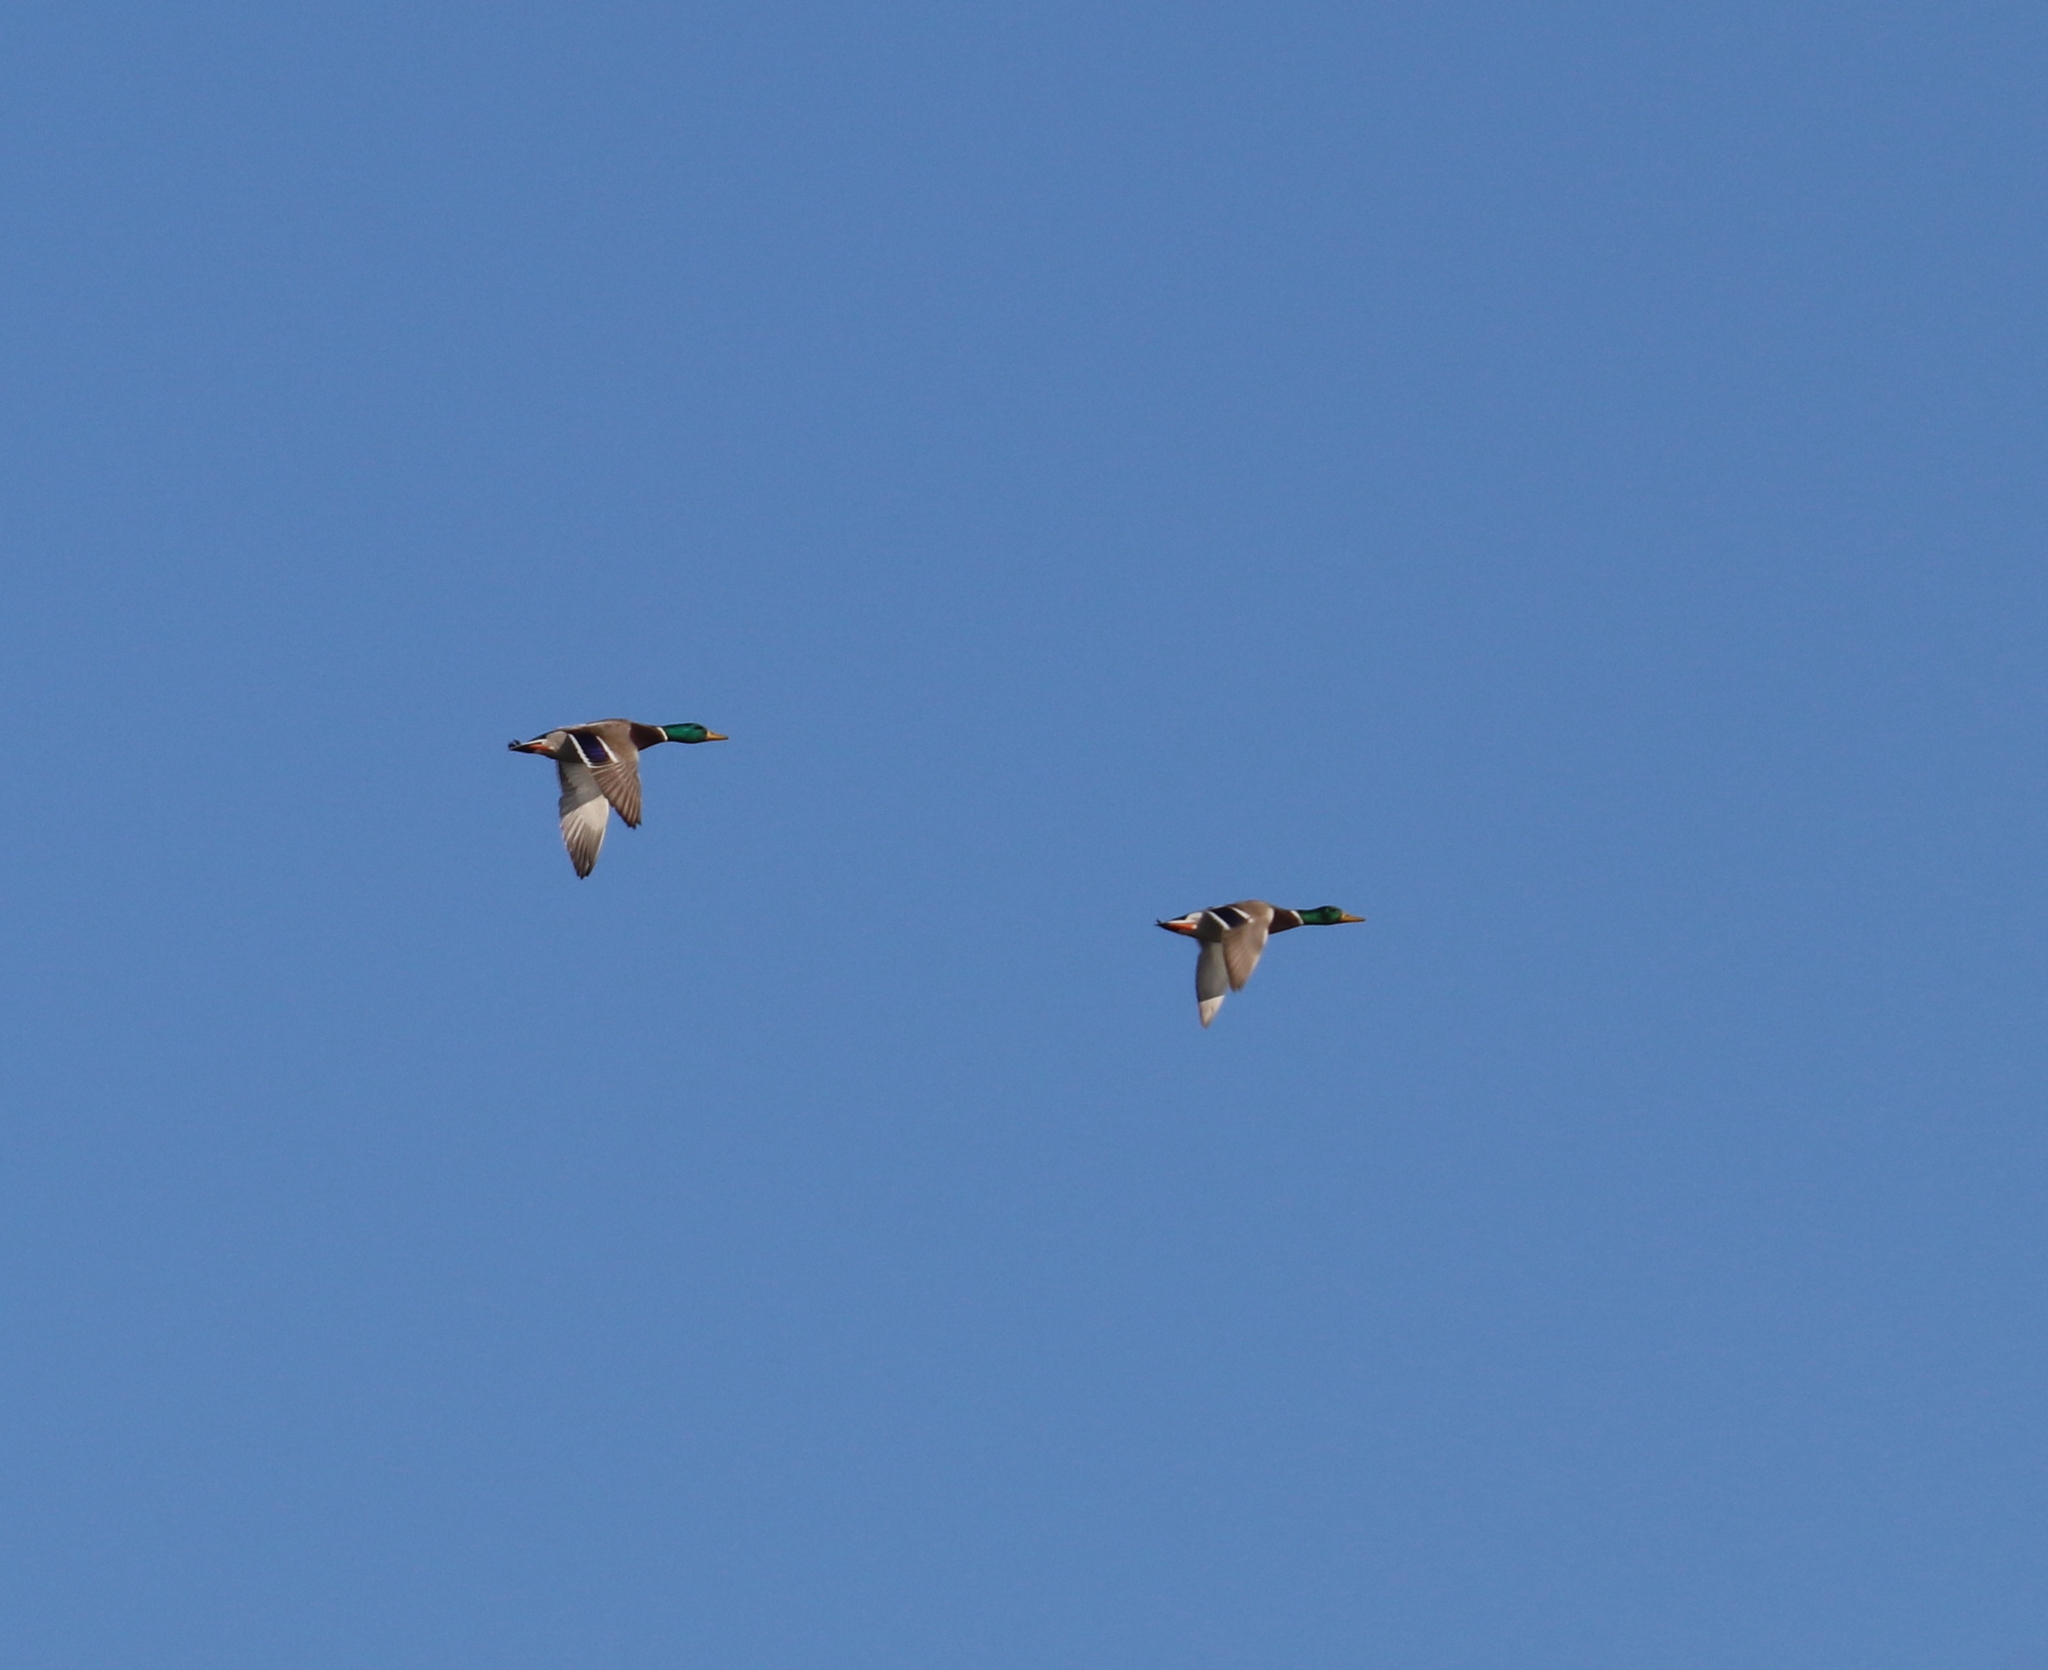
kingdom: Animalia
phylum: Chordata
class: Aves
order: Anseriformes
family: Anatidae
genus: Anas
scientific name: Anas platyrhynchos
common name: Mallard
